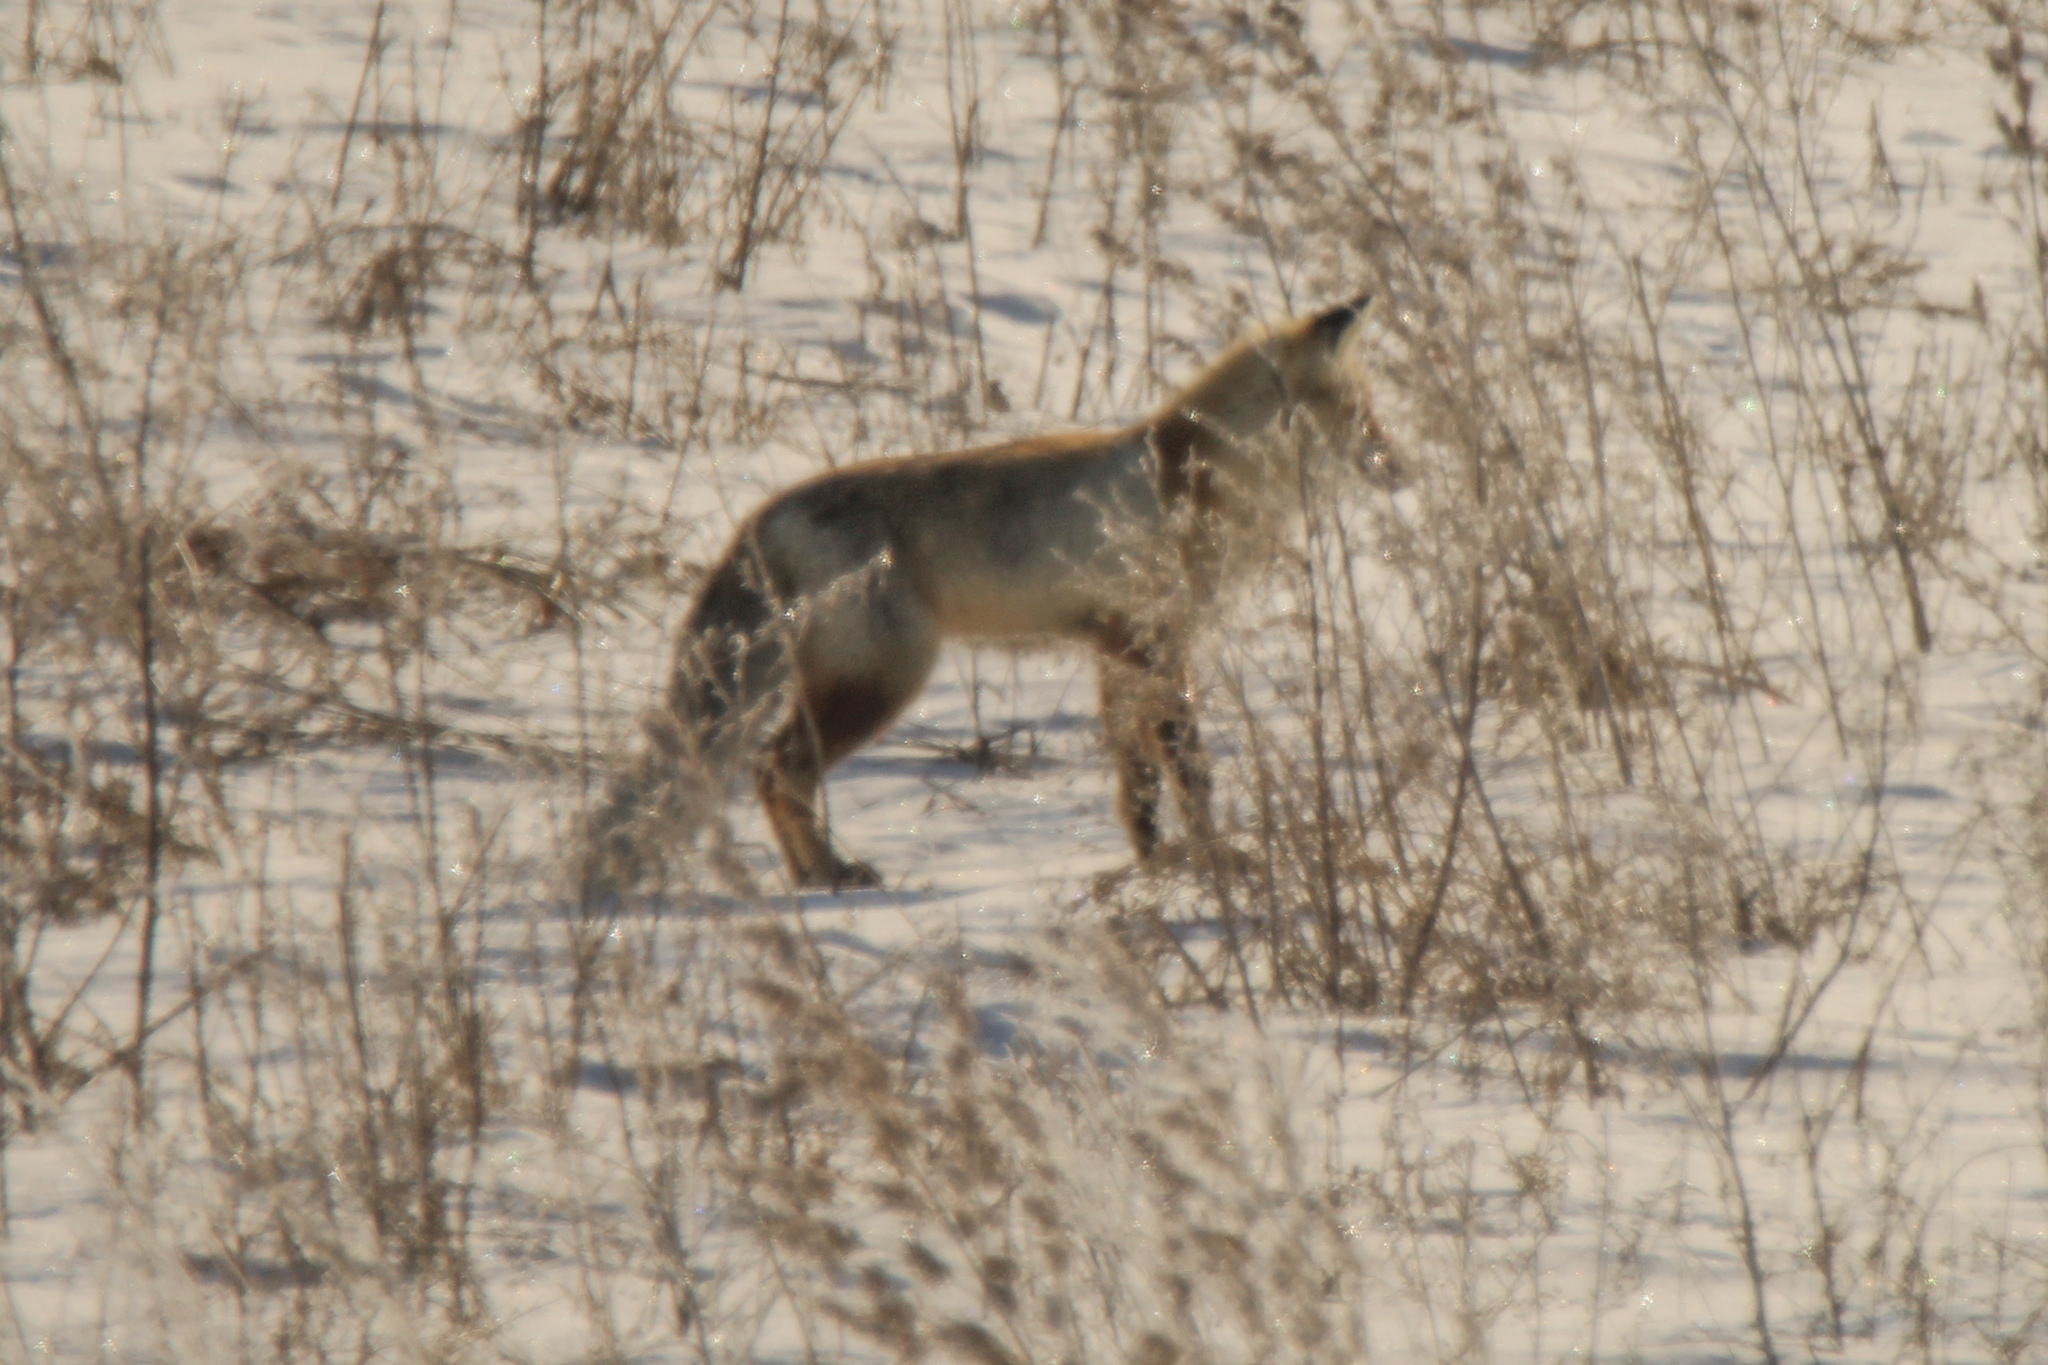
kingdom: Animalia
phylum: Chordata
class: Mammalia
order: Carnivora
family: Canidae
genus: Vulpes
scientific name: Vulpes vulpes
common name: Red fox
